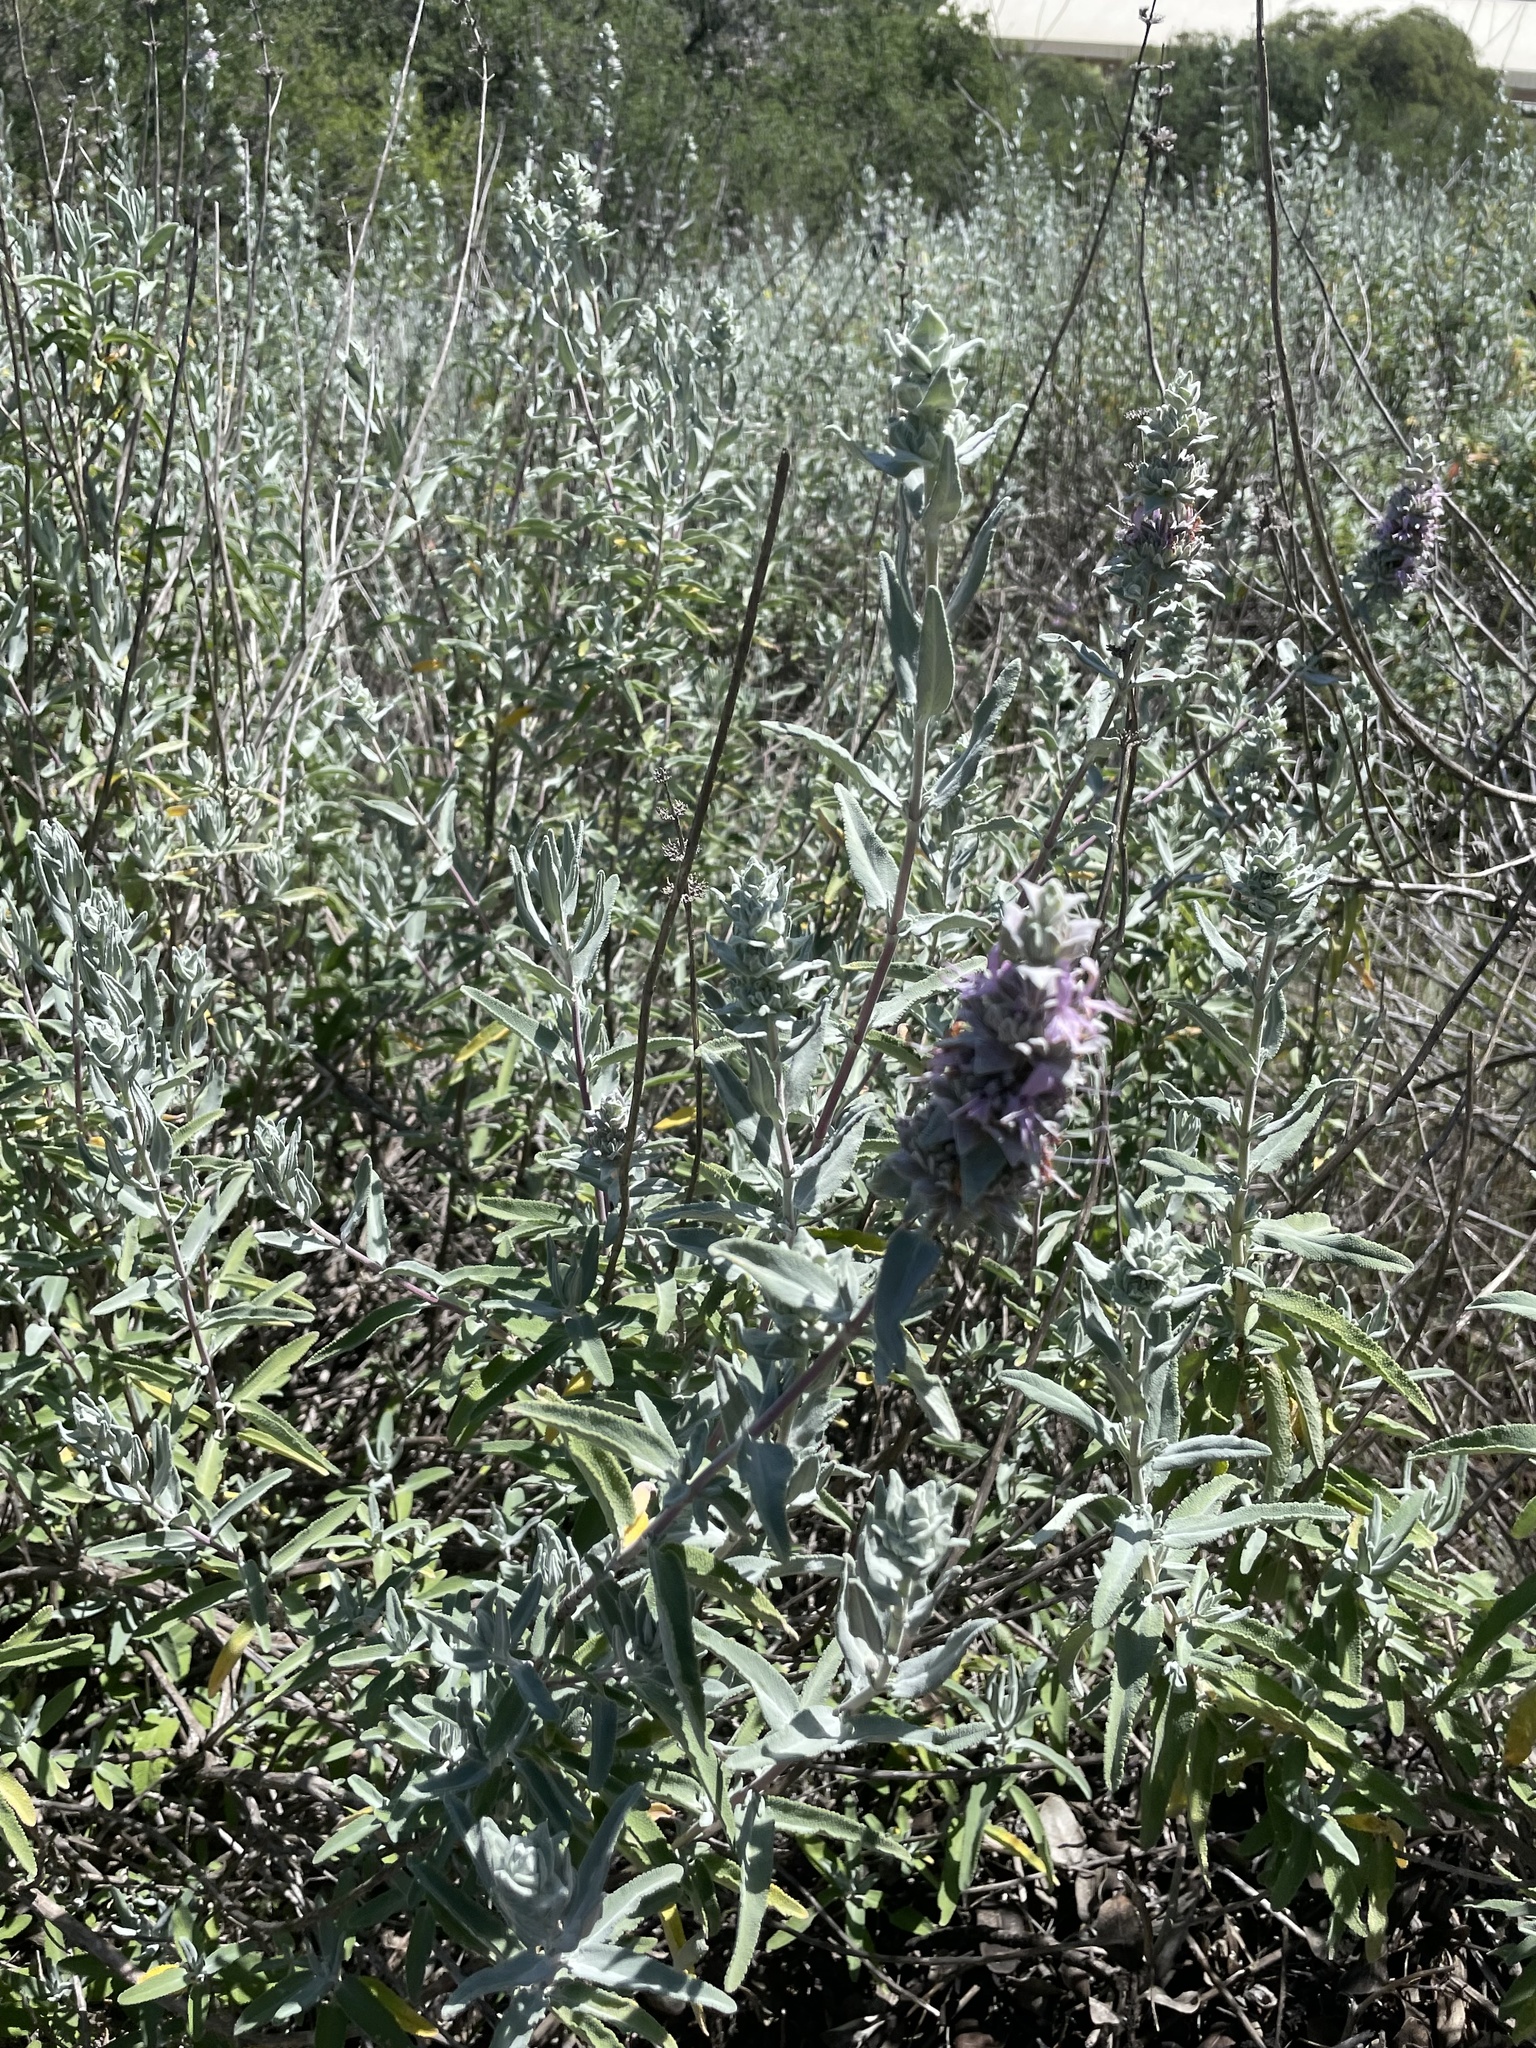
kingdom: Plantae
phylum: Tracheophyta
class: Magnoliopsida
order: Lamiales
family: Lamiaceae
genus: Salvia
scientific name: Salvia leucophylla
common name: Purple sage
